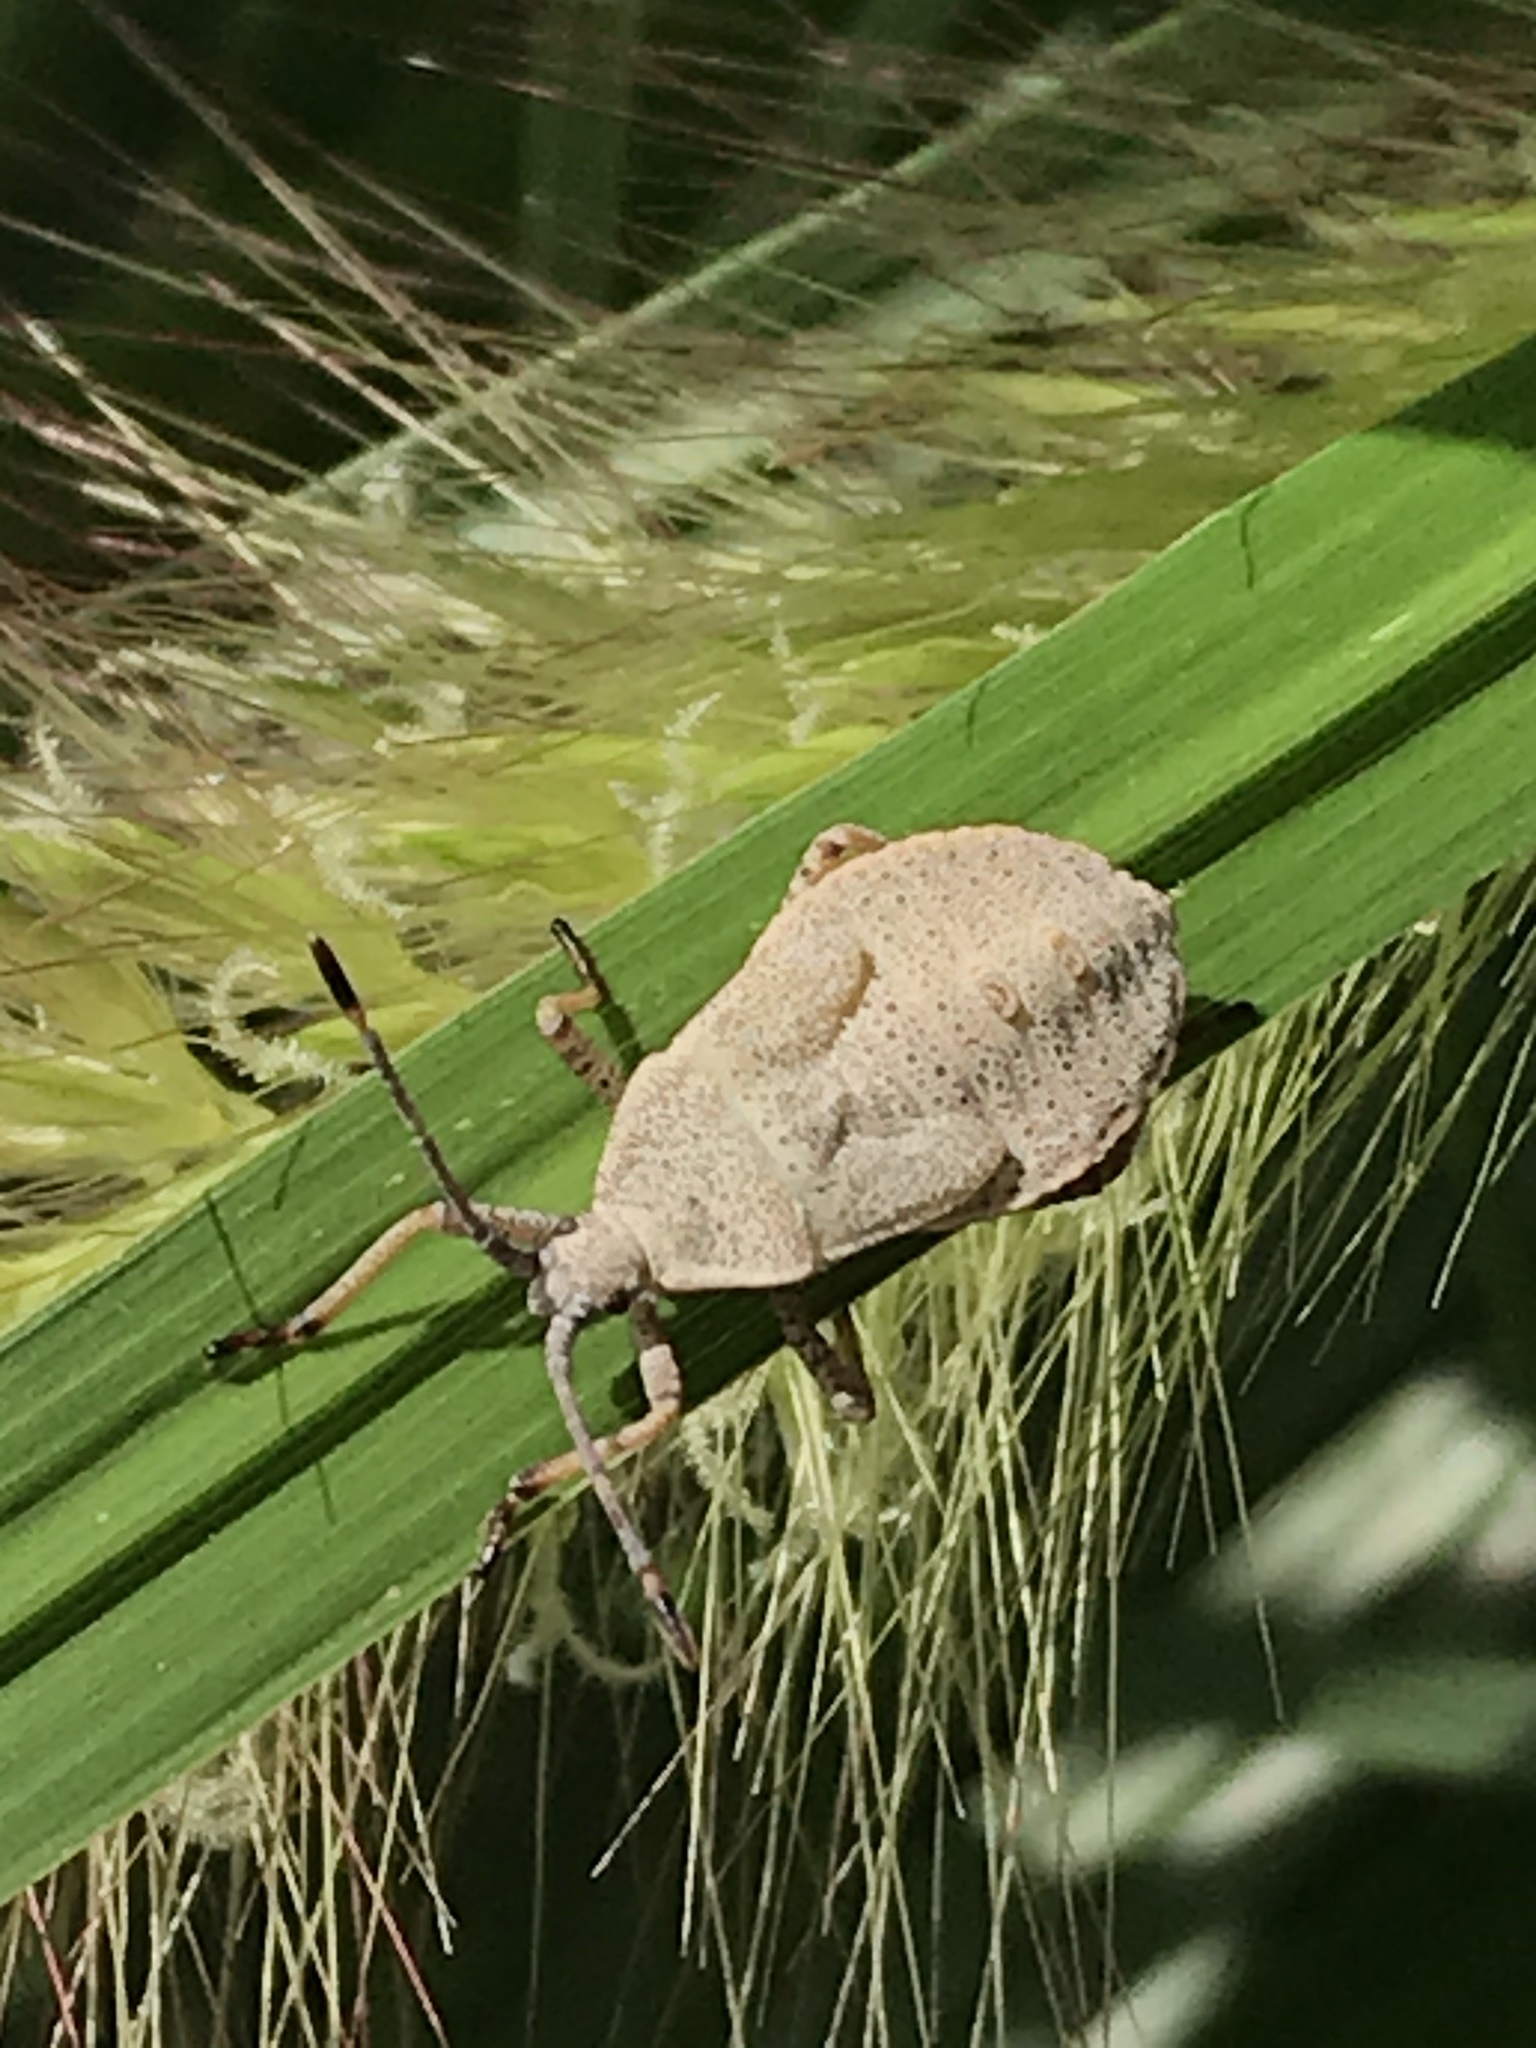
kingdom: Animalia
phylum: Arthropoda
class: Insecta
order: Hemiptera
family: Coreidae
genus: Anasa
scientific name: Anasa tristis
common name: Squash bug
